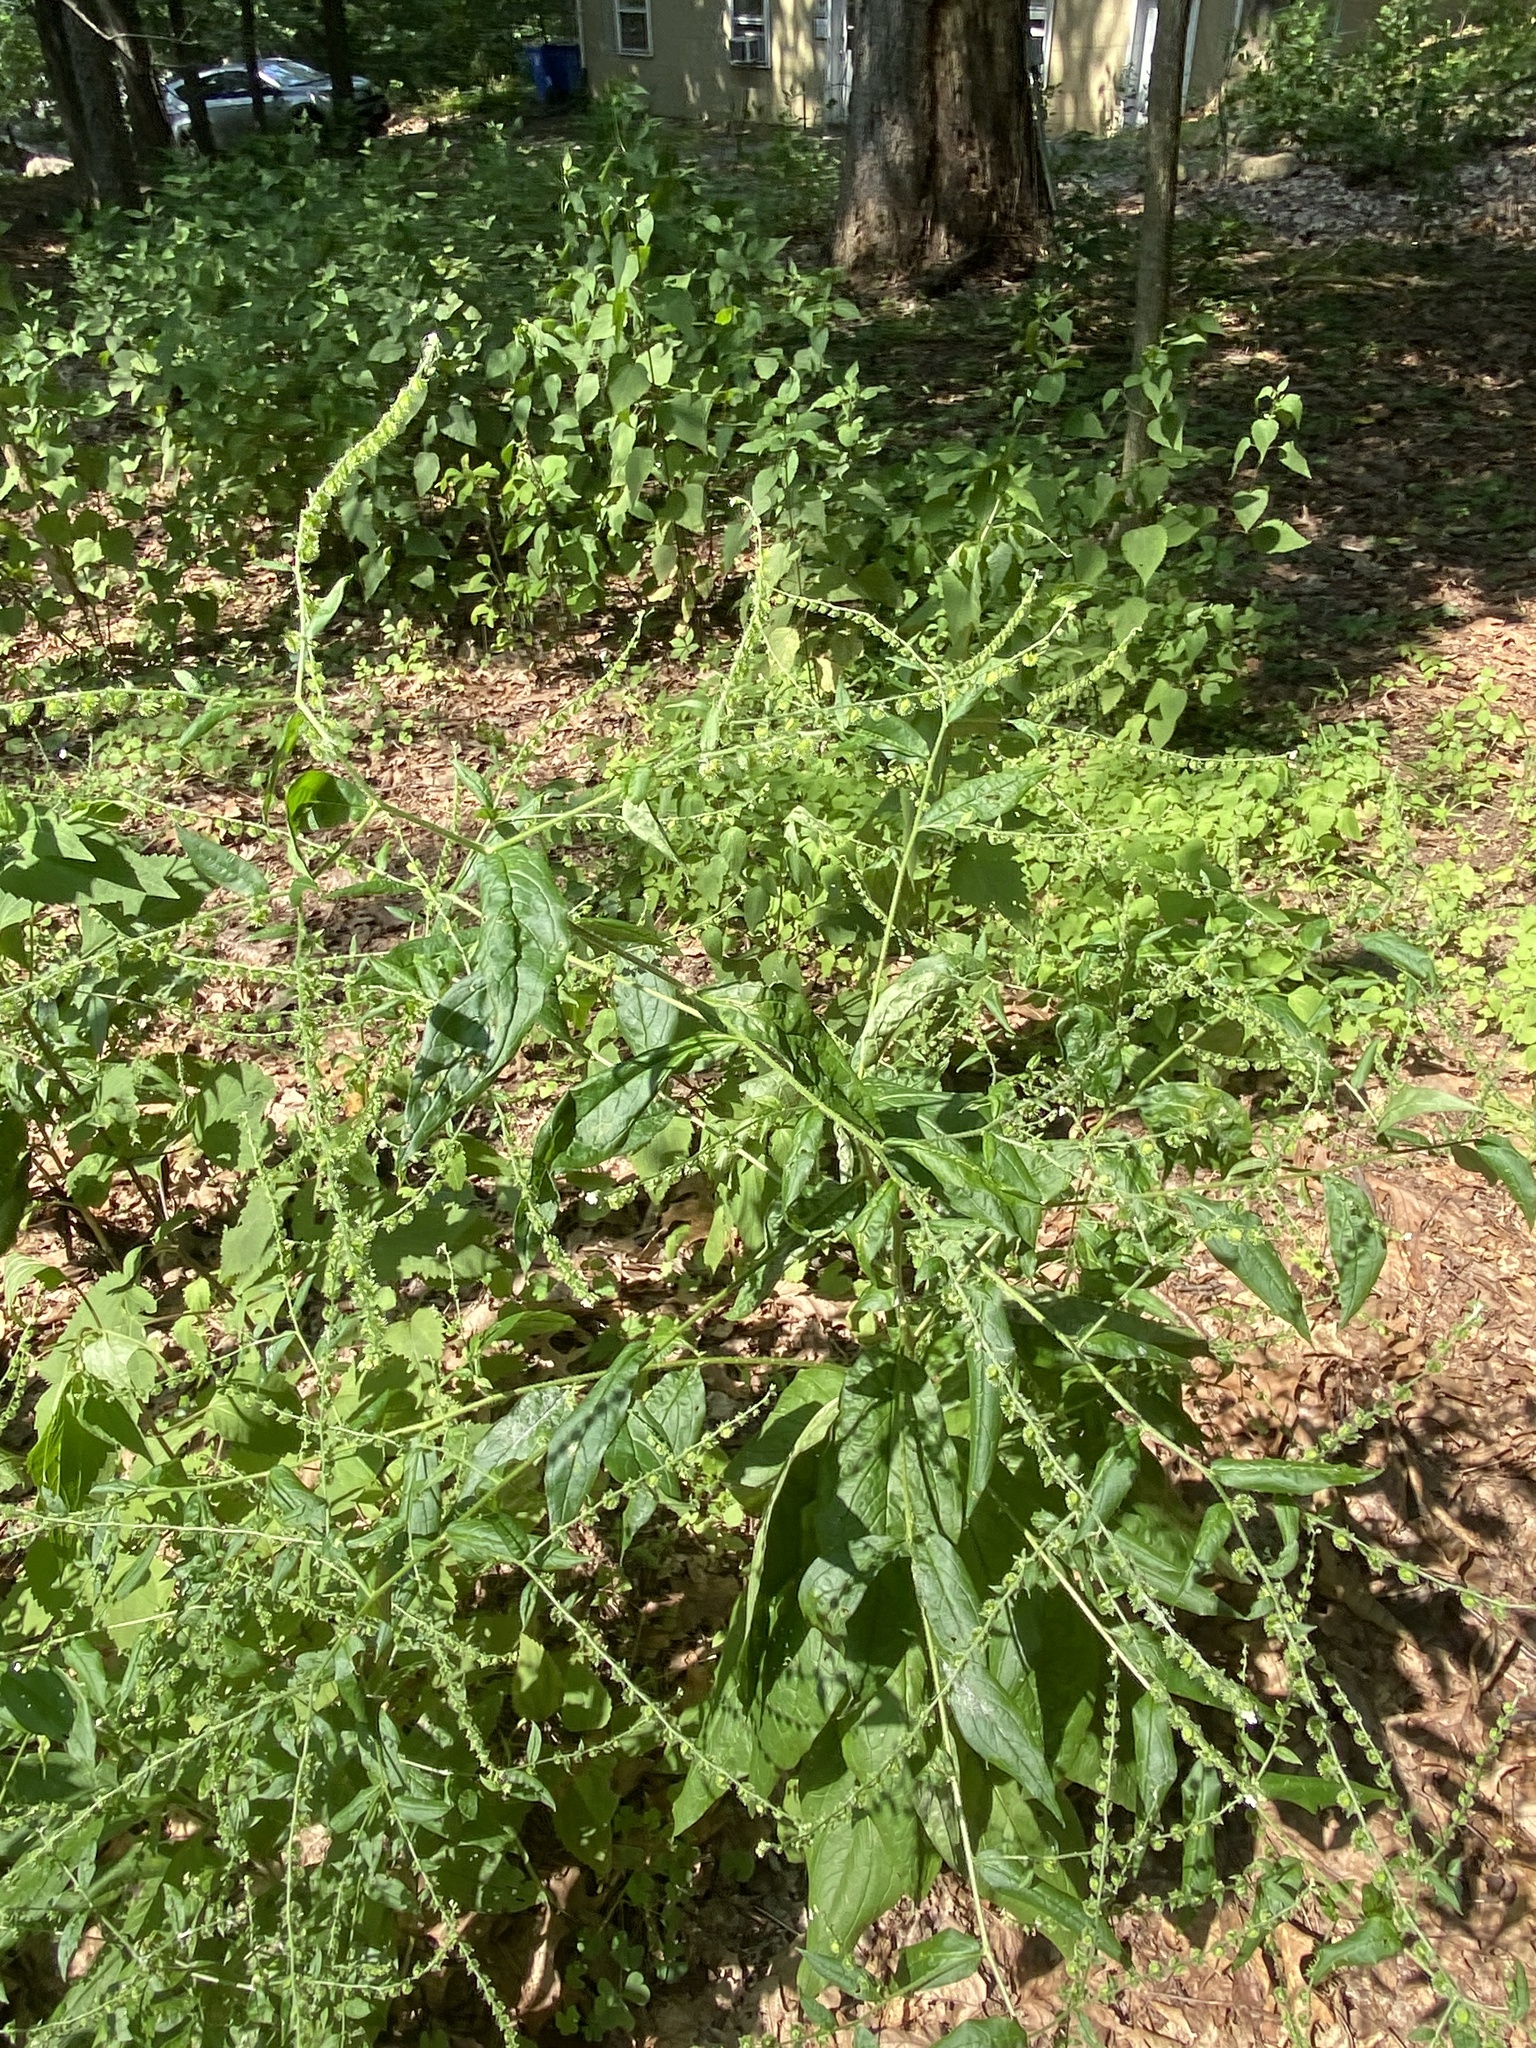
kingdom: Plantae
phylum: Tracheophyta
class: Magnoliopsida
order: Boraginales
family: Boraginaceae
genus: Hackelia
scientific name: Hackelia virginiana
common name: Beggar's-lice
